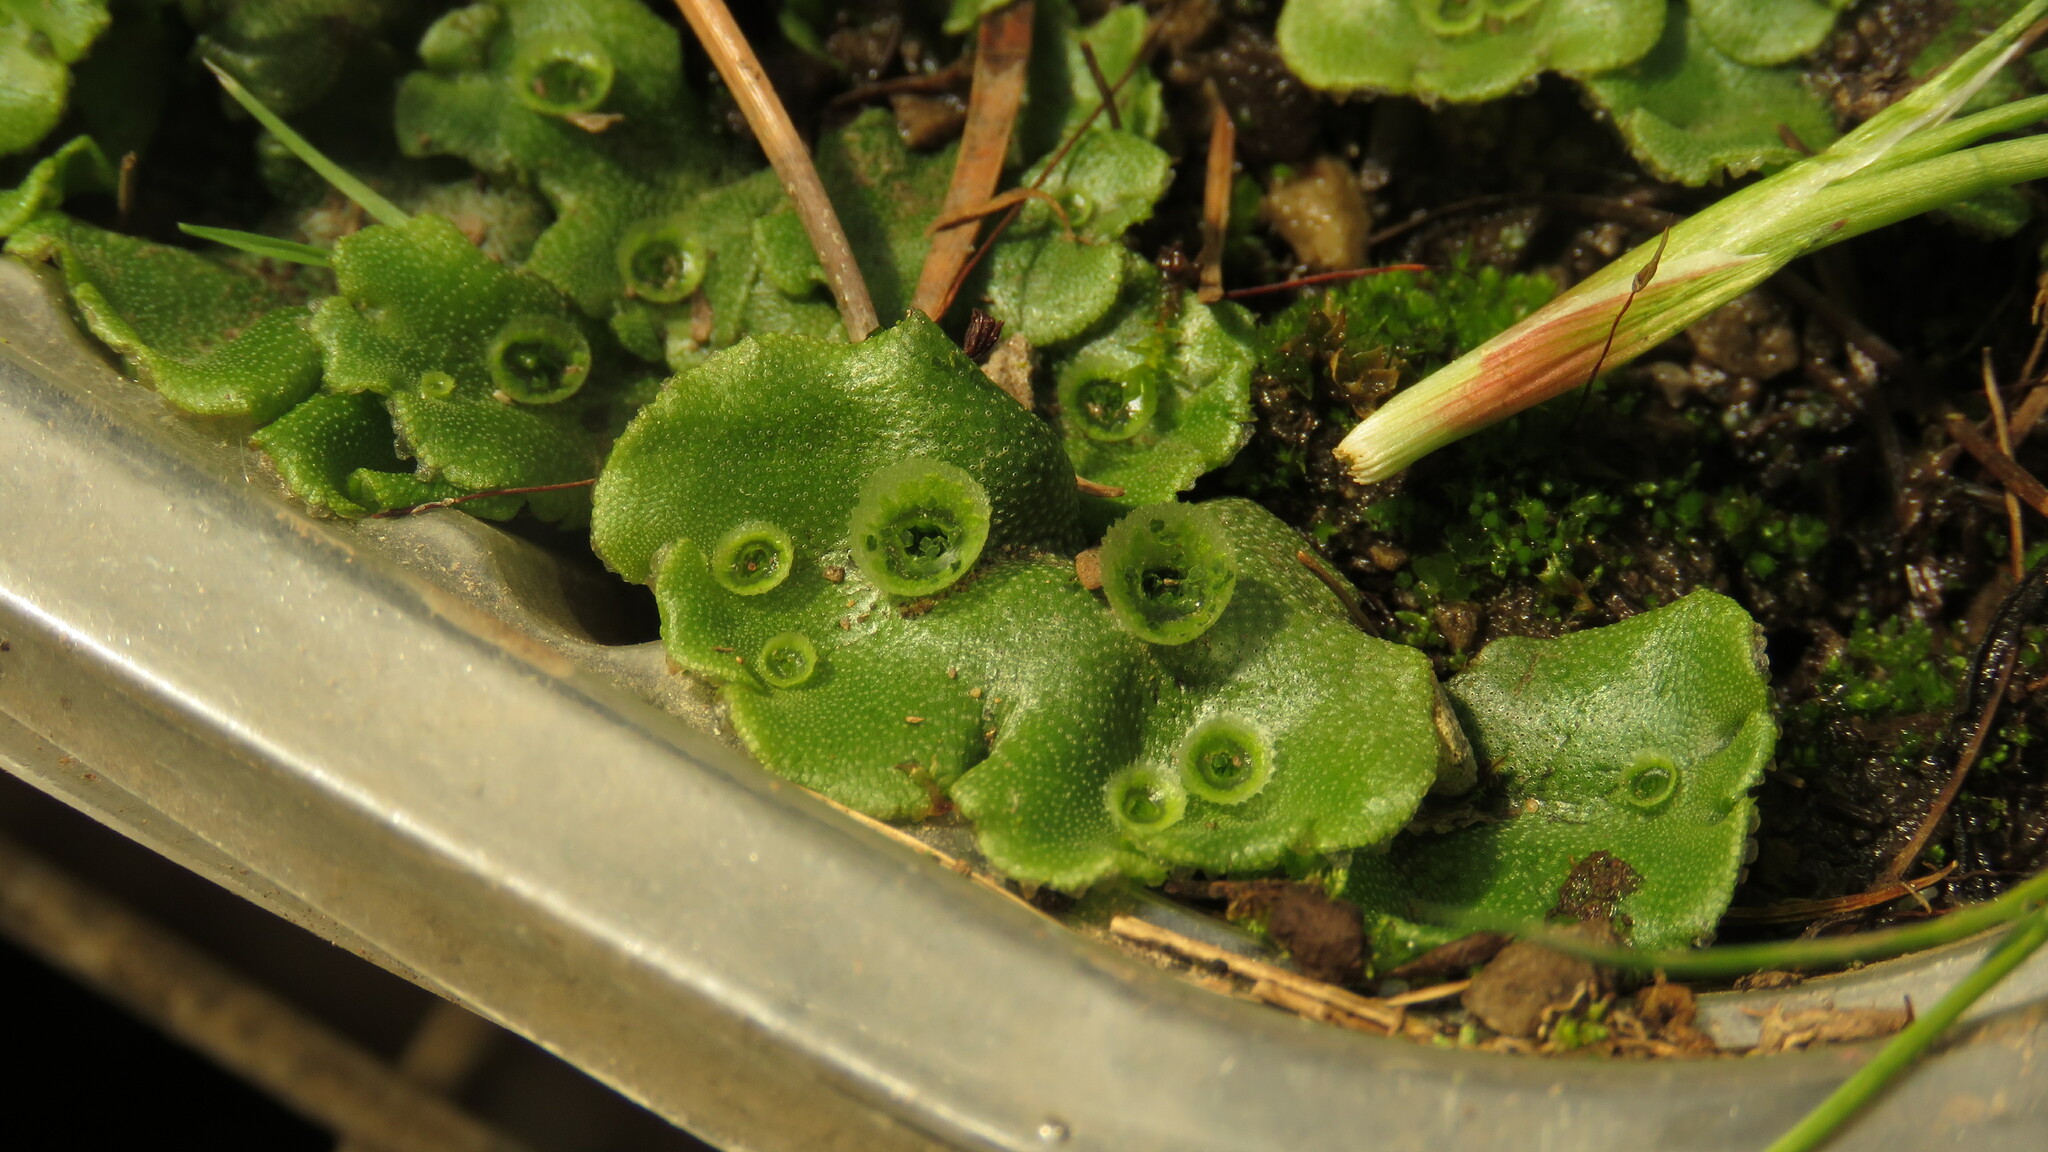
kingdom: Plantae
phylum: Marchantiophyta
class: Marchantiopsida
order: Marchantiales
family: Marchantiaceae
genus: Marchantia
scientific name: Marchantia polymorpha
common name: Common liverwort
